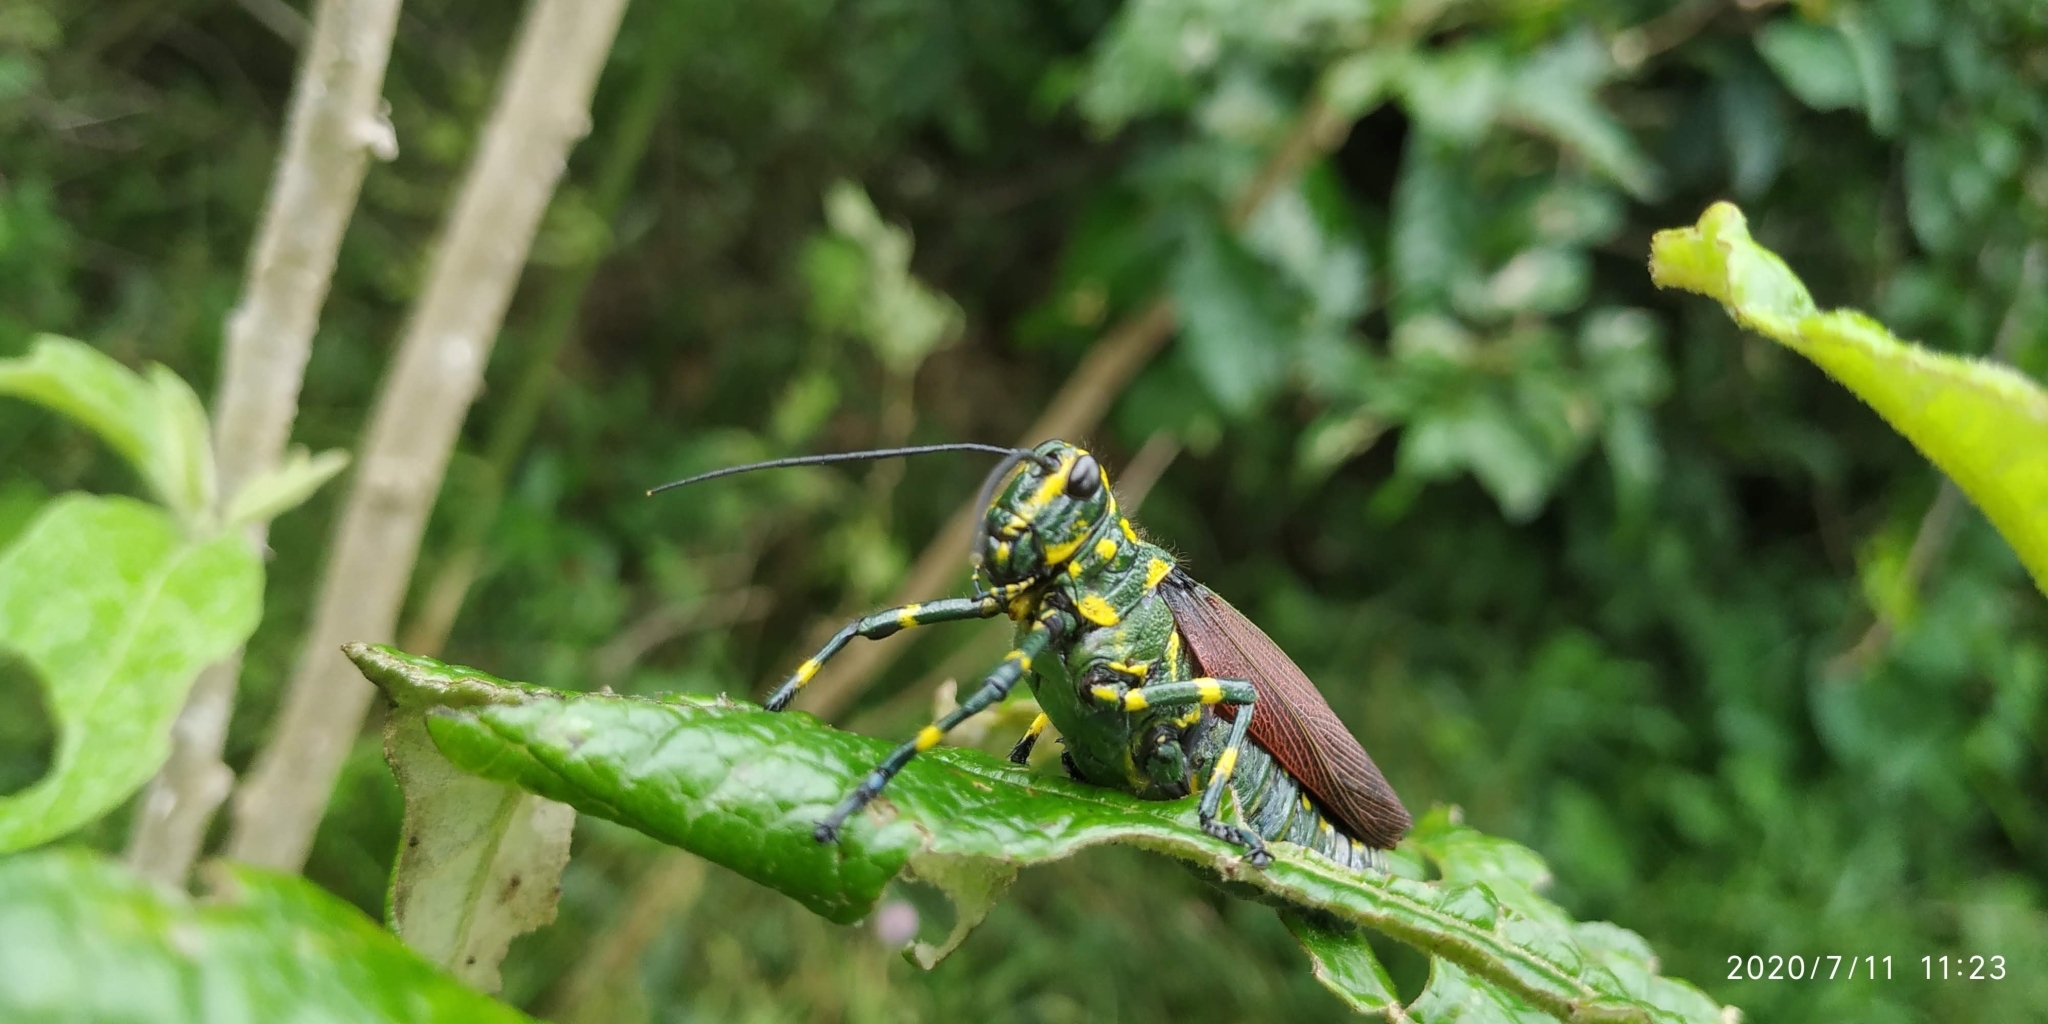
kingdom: Animalia
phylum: Arthropoda
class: Insecta
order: Orthoptera
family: Romaleidae
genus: Chromacris
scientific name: Chromacris speciosa
